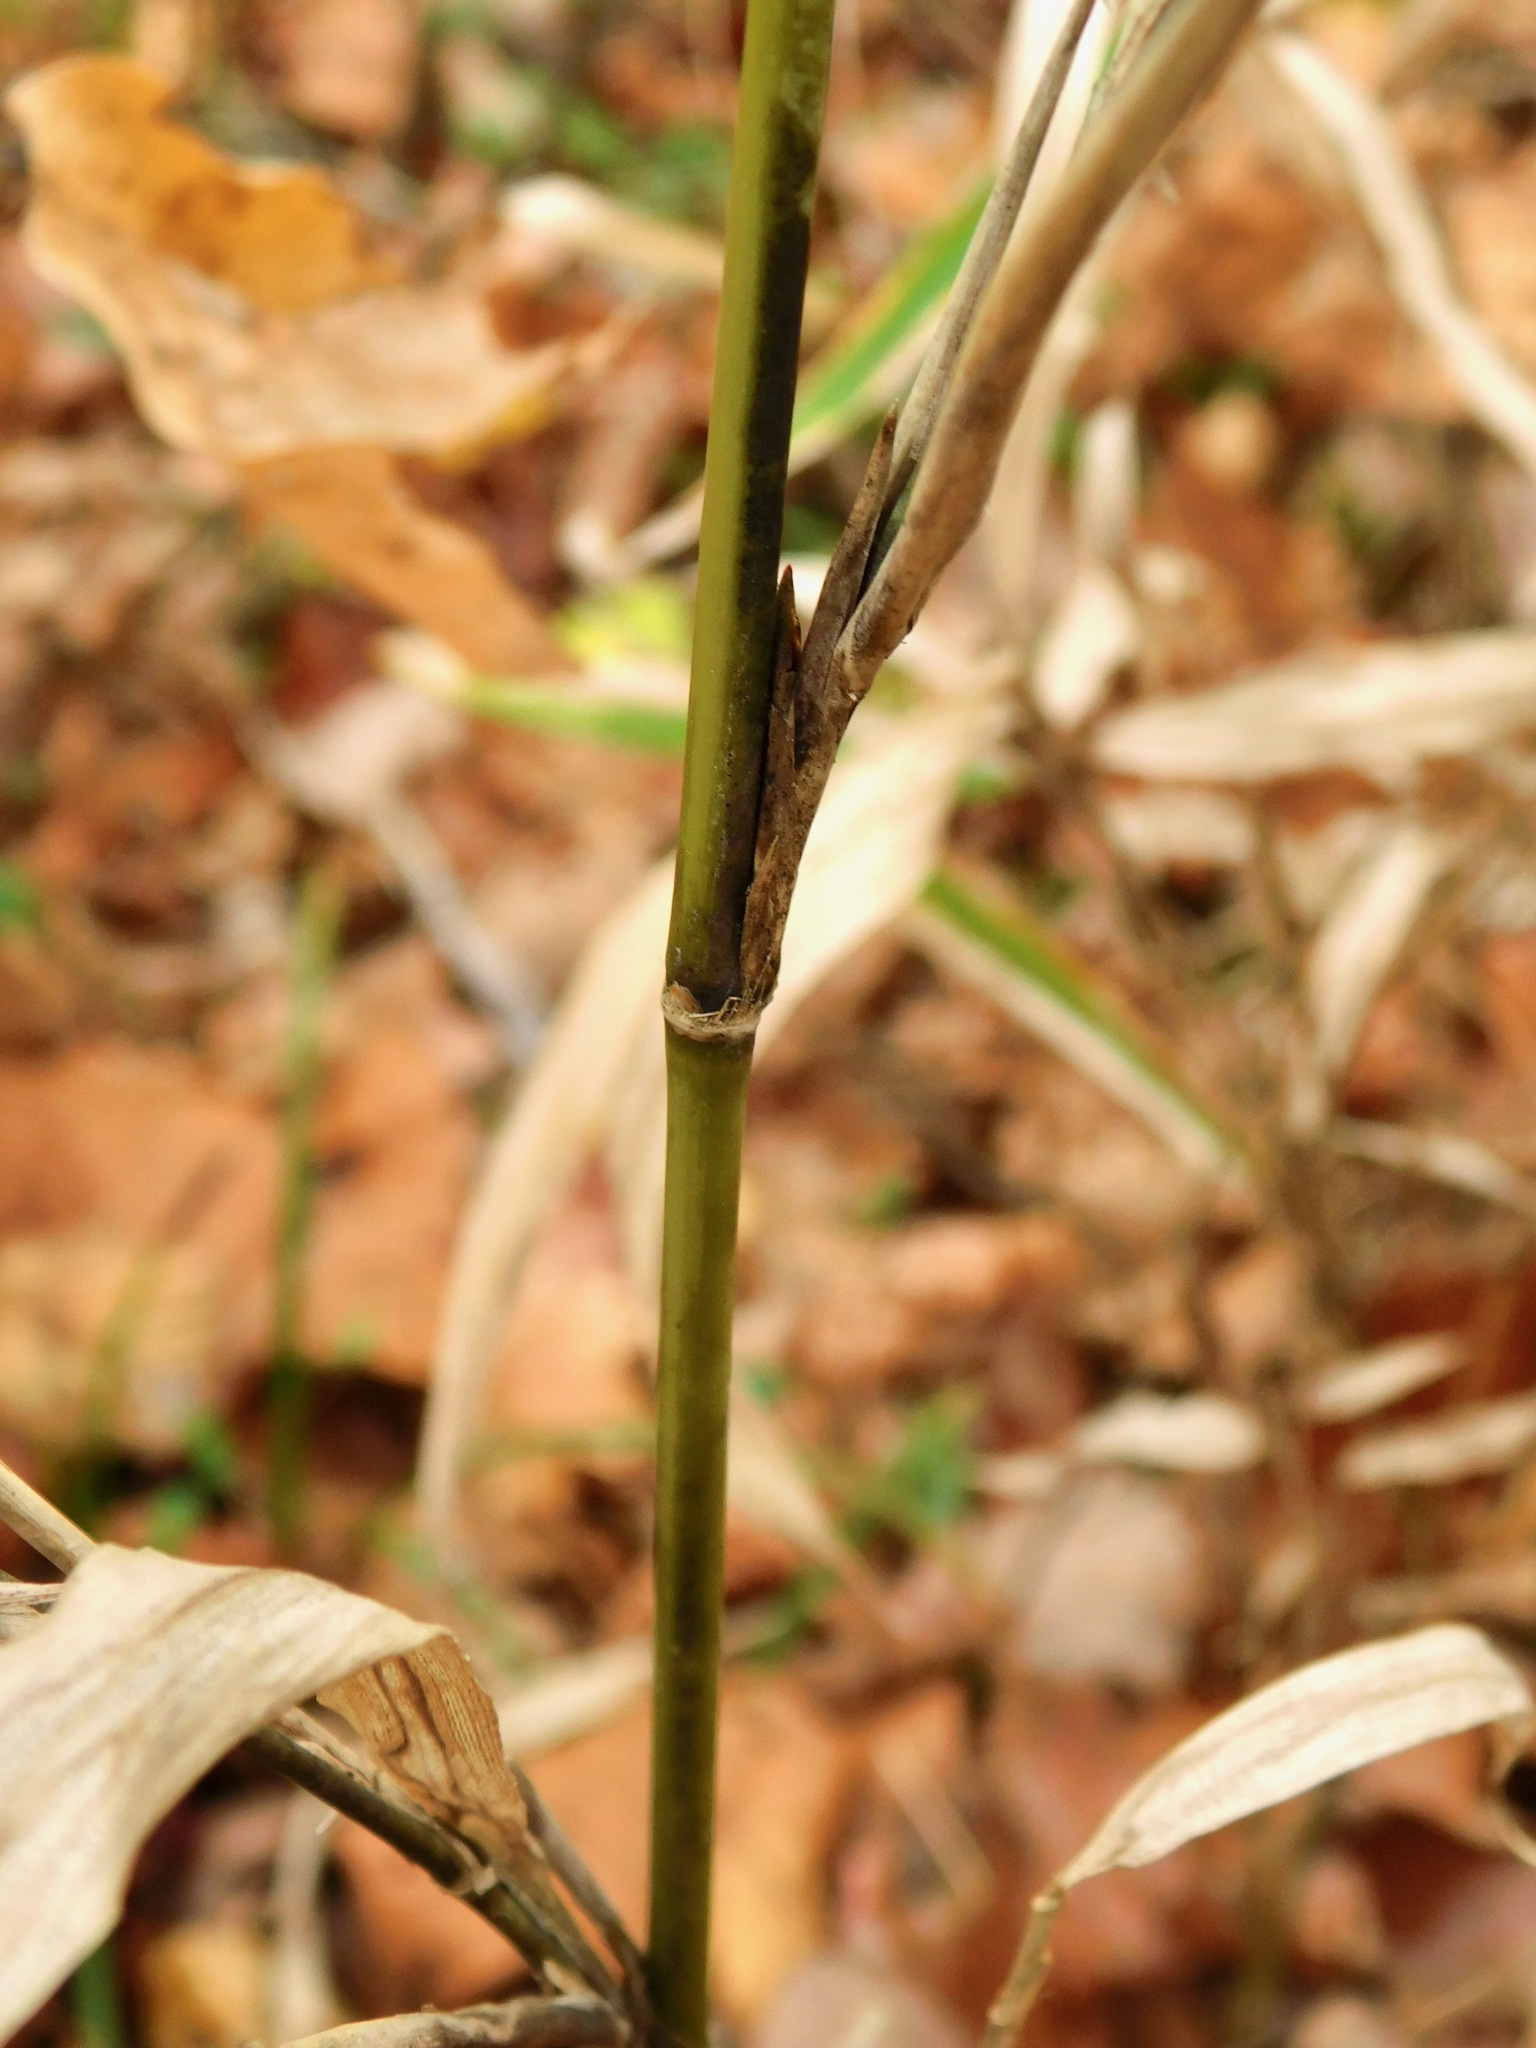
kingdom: Plantae
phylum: Tracheophyta
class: Liliopsida
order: Poales
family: Poaceae
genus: Arundinaria
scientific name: Arundinaria appalachiana
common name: Hill cane
